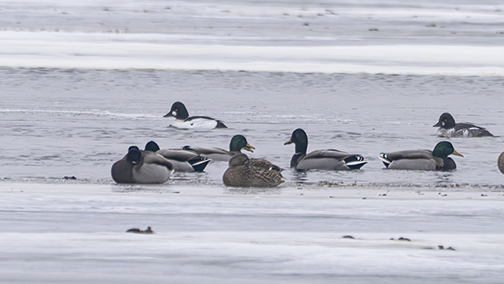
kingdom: Animalia
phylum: Chordata
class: Aves
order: Anseriformes
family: Anatidae
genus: Bucephala
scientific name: Bucephala clangula
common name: Common goldeneye
